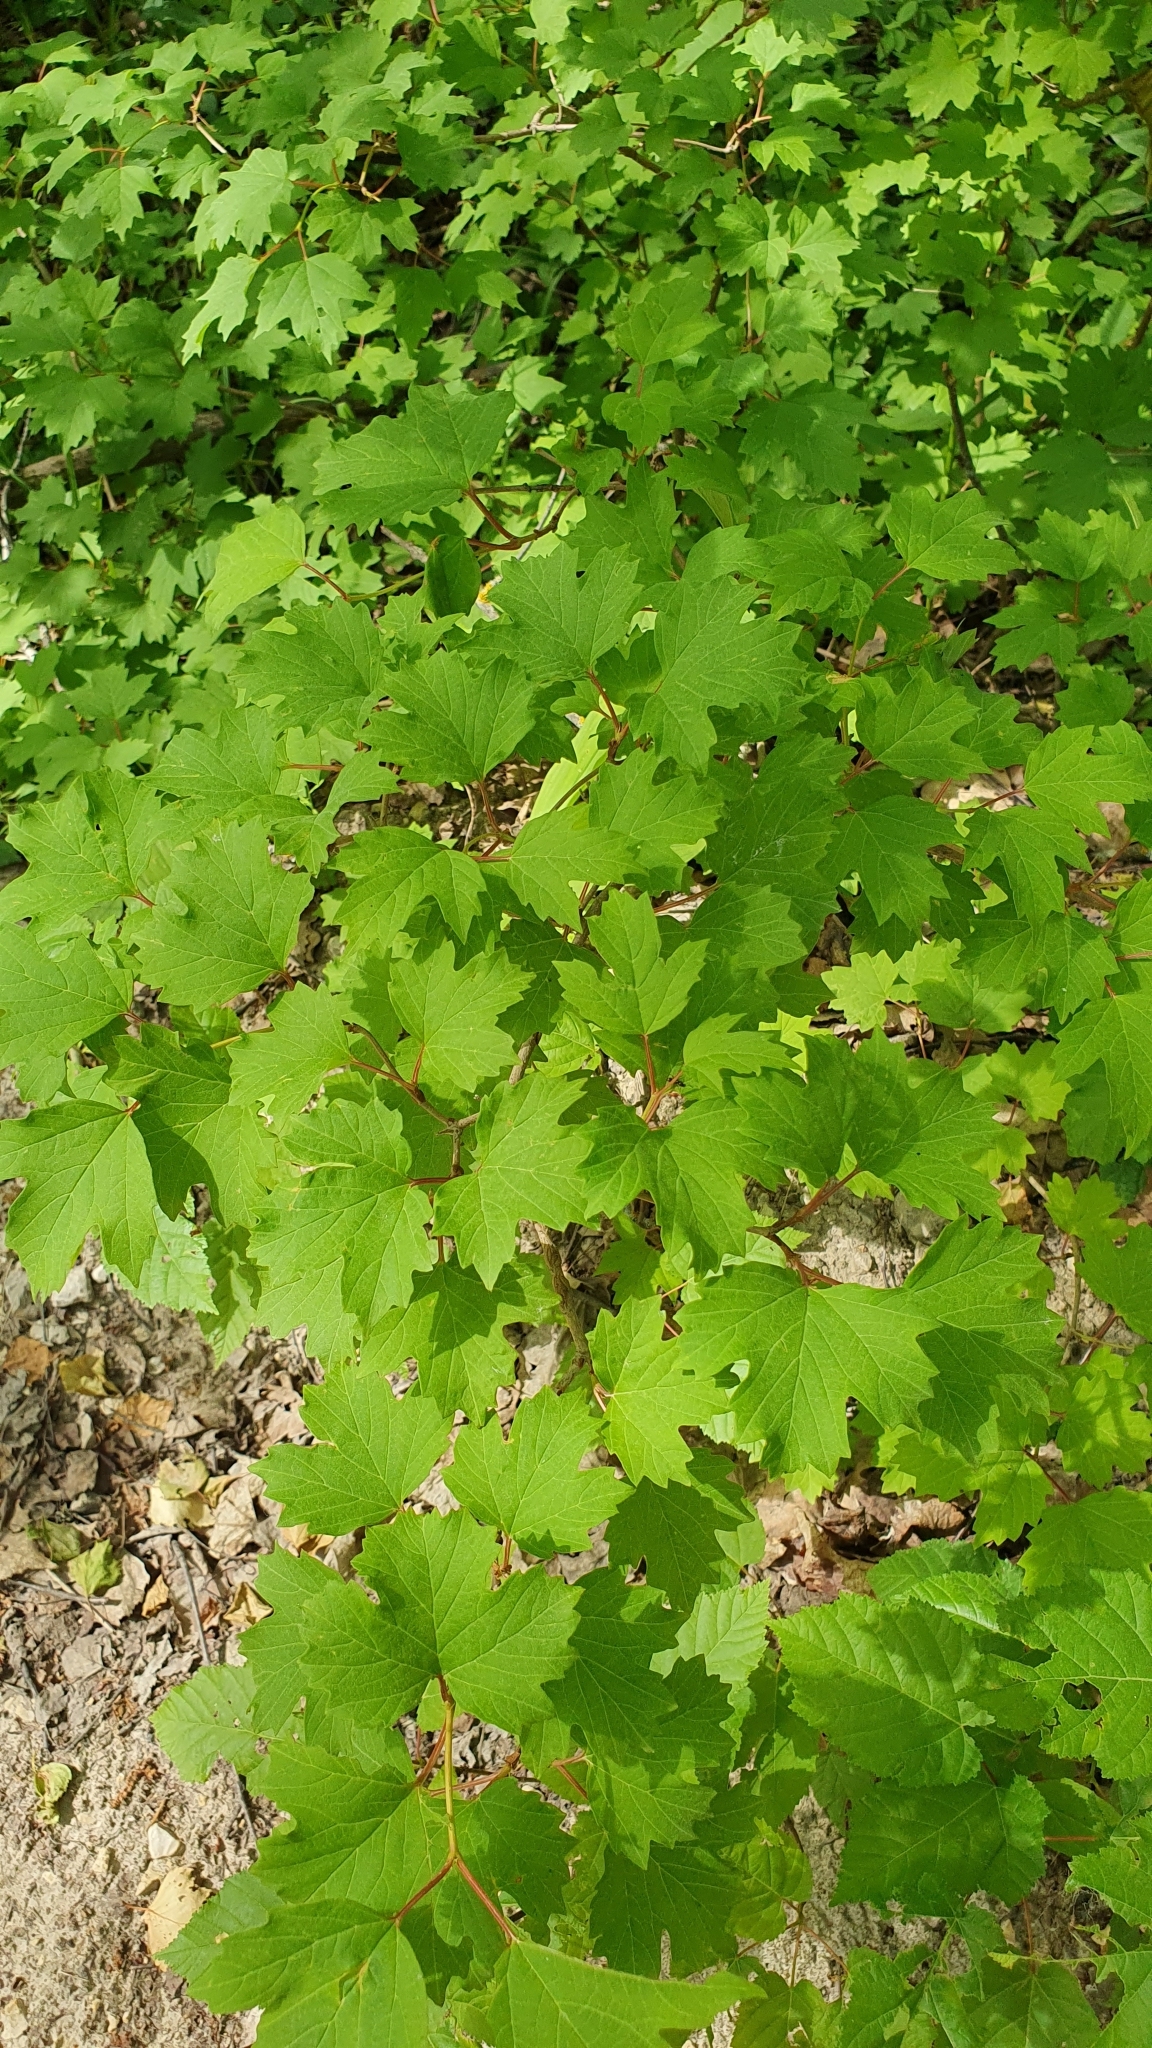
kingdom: Plantae
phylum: Tracheophyta
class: Magnoliopsida
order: Dipsacales
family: Viburnaceae
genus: Viburnum
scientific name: Viburnum opulus
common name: Guelder-rose
